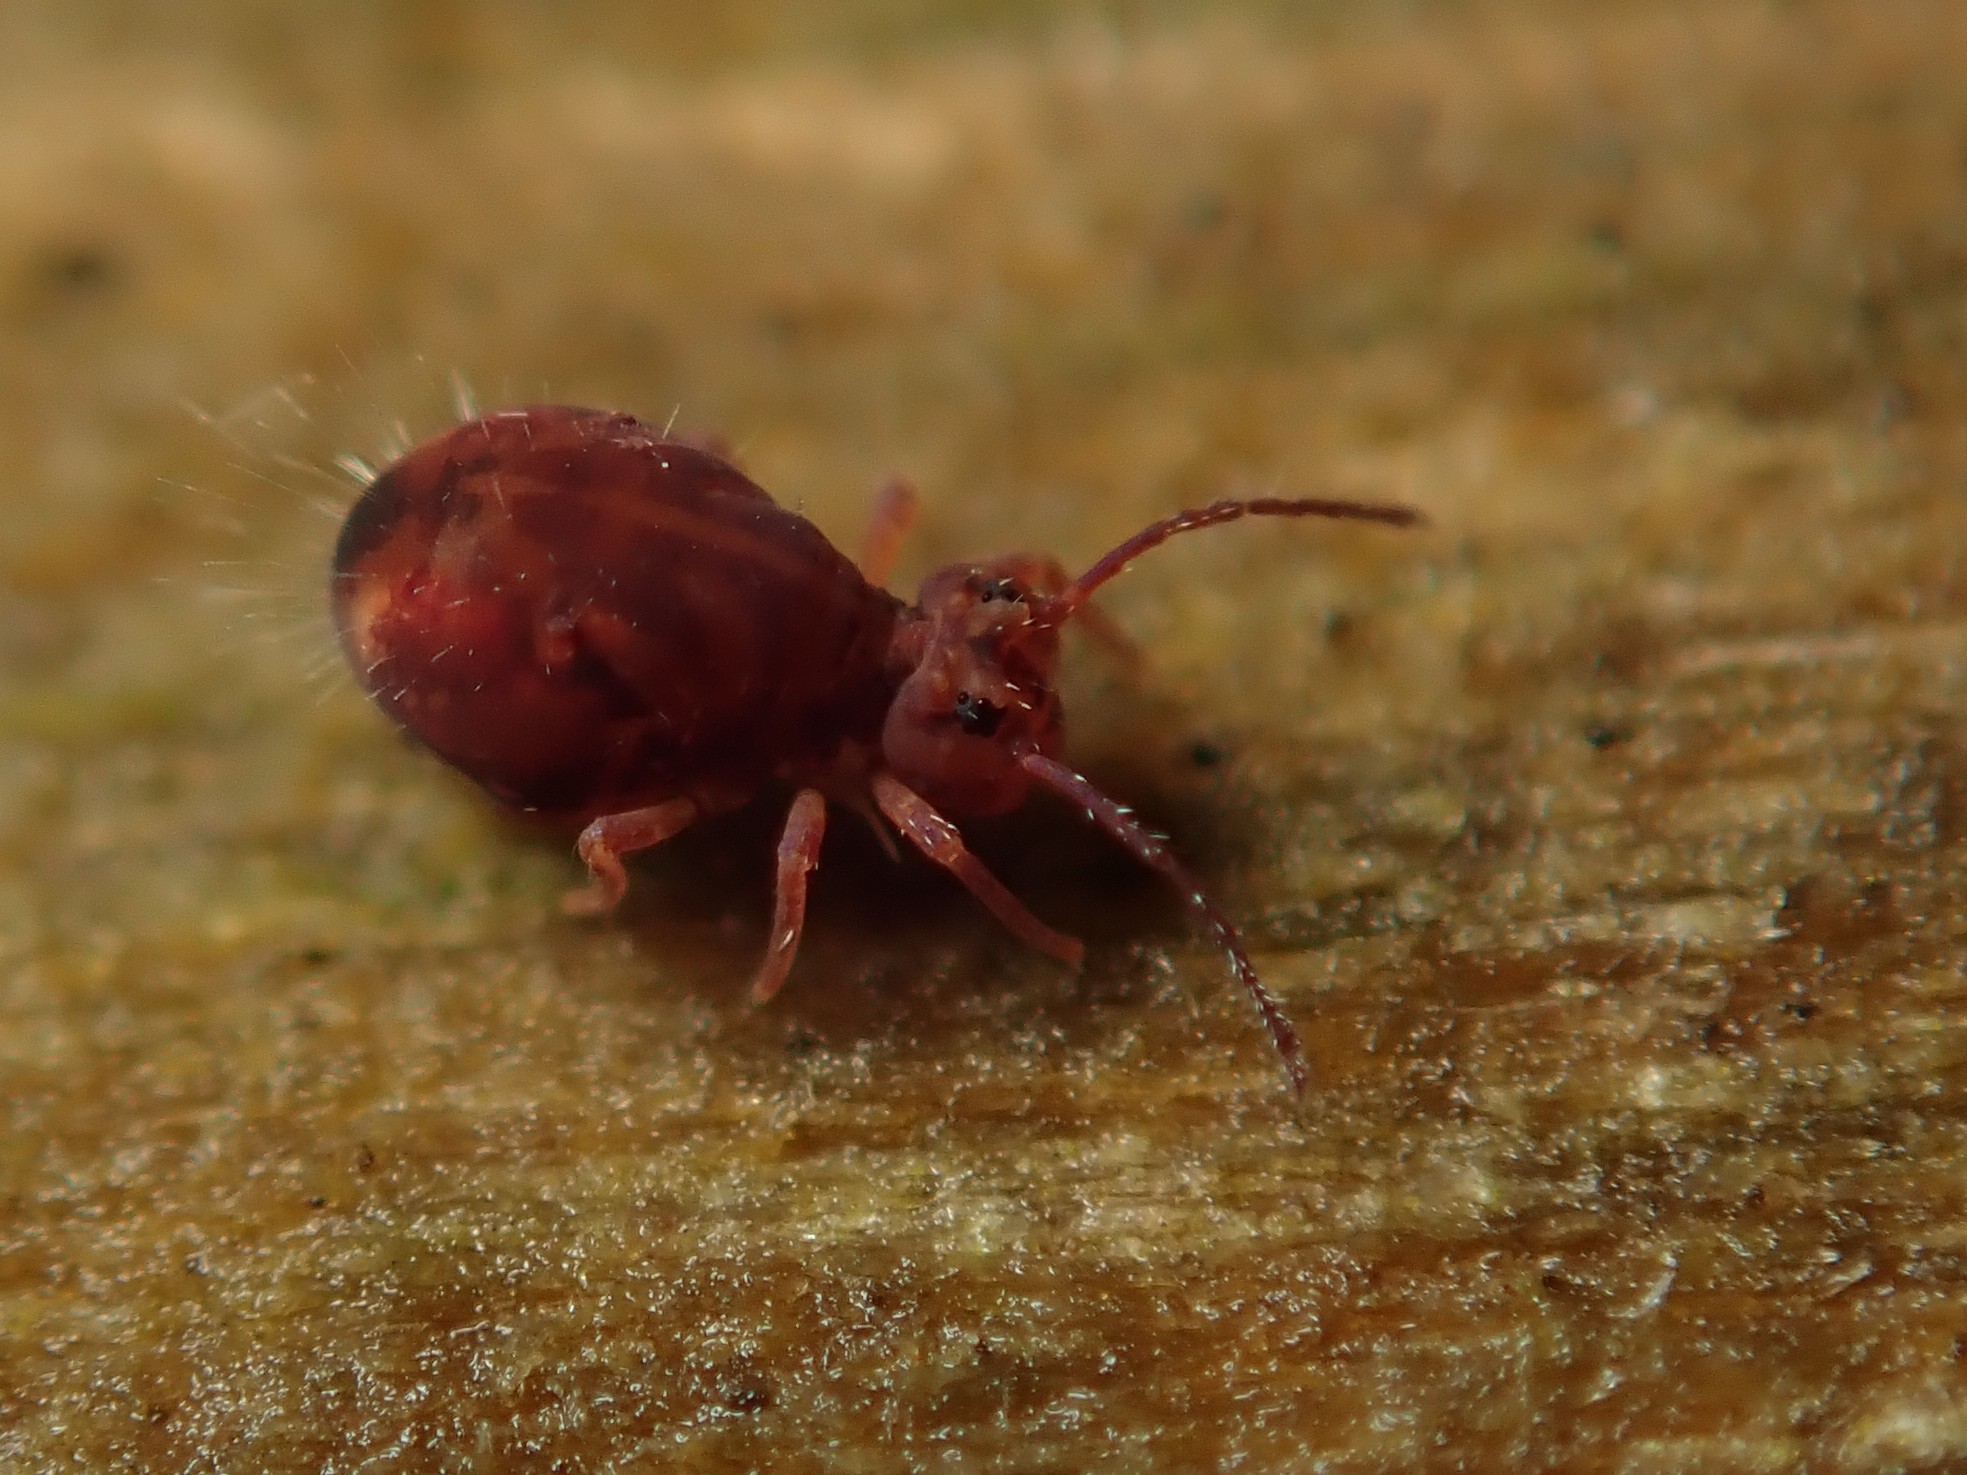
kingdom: Animalia
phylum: Arthropoda
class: Collembola
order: Symphypleona
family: Dicyrtomidae
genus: Dicyrtoma
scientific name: Dicyrtoma fusca
